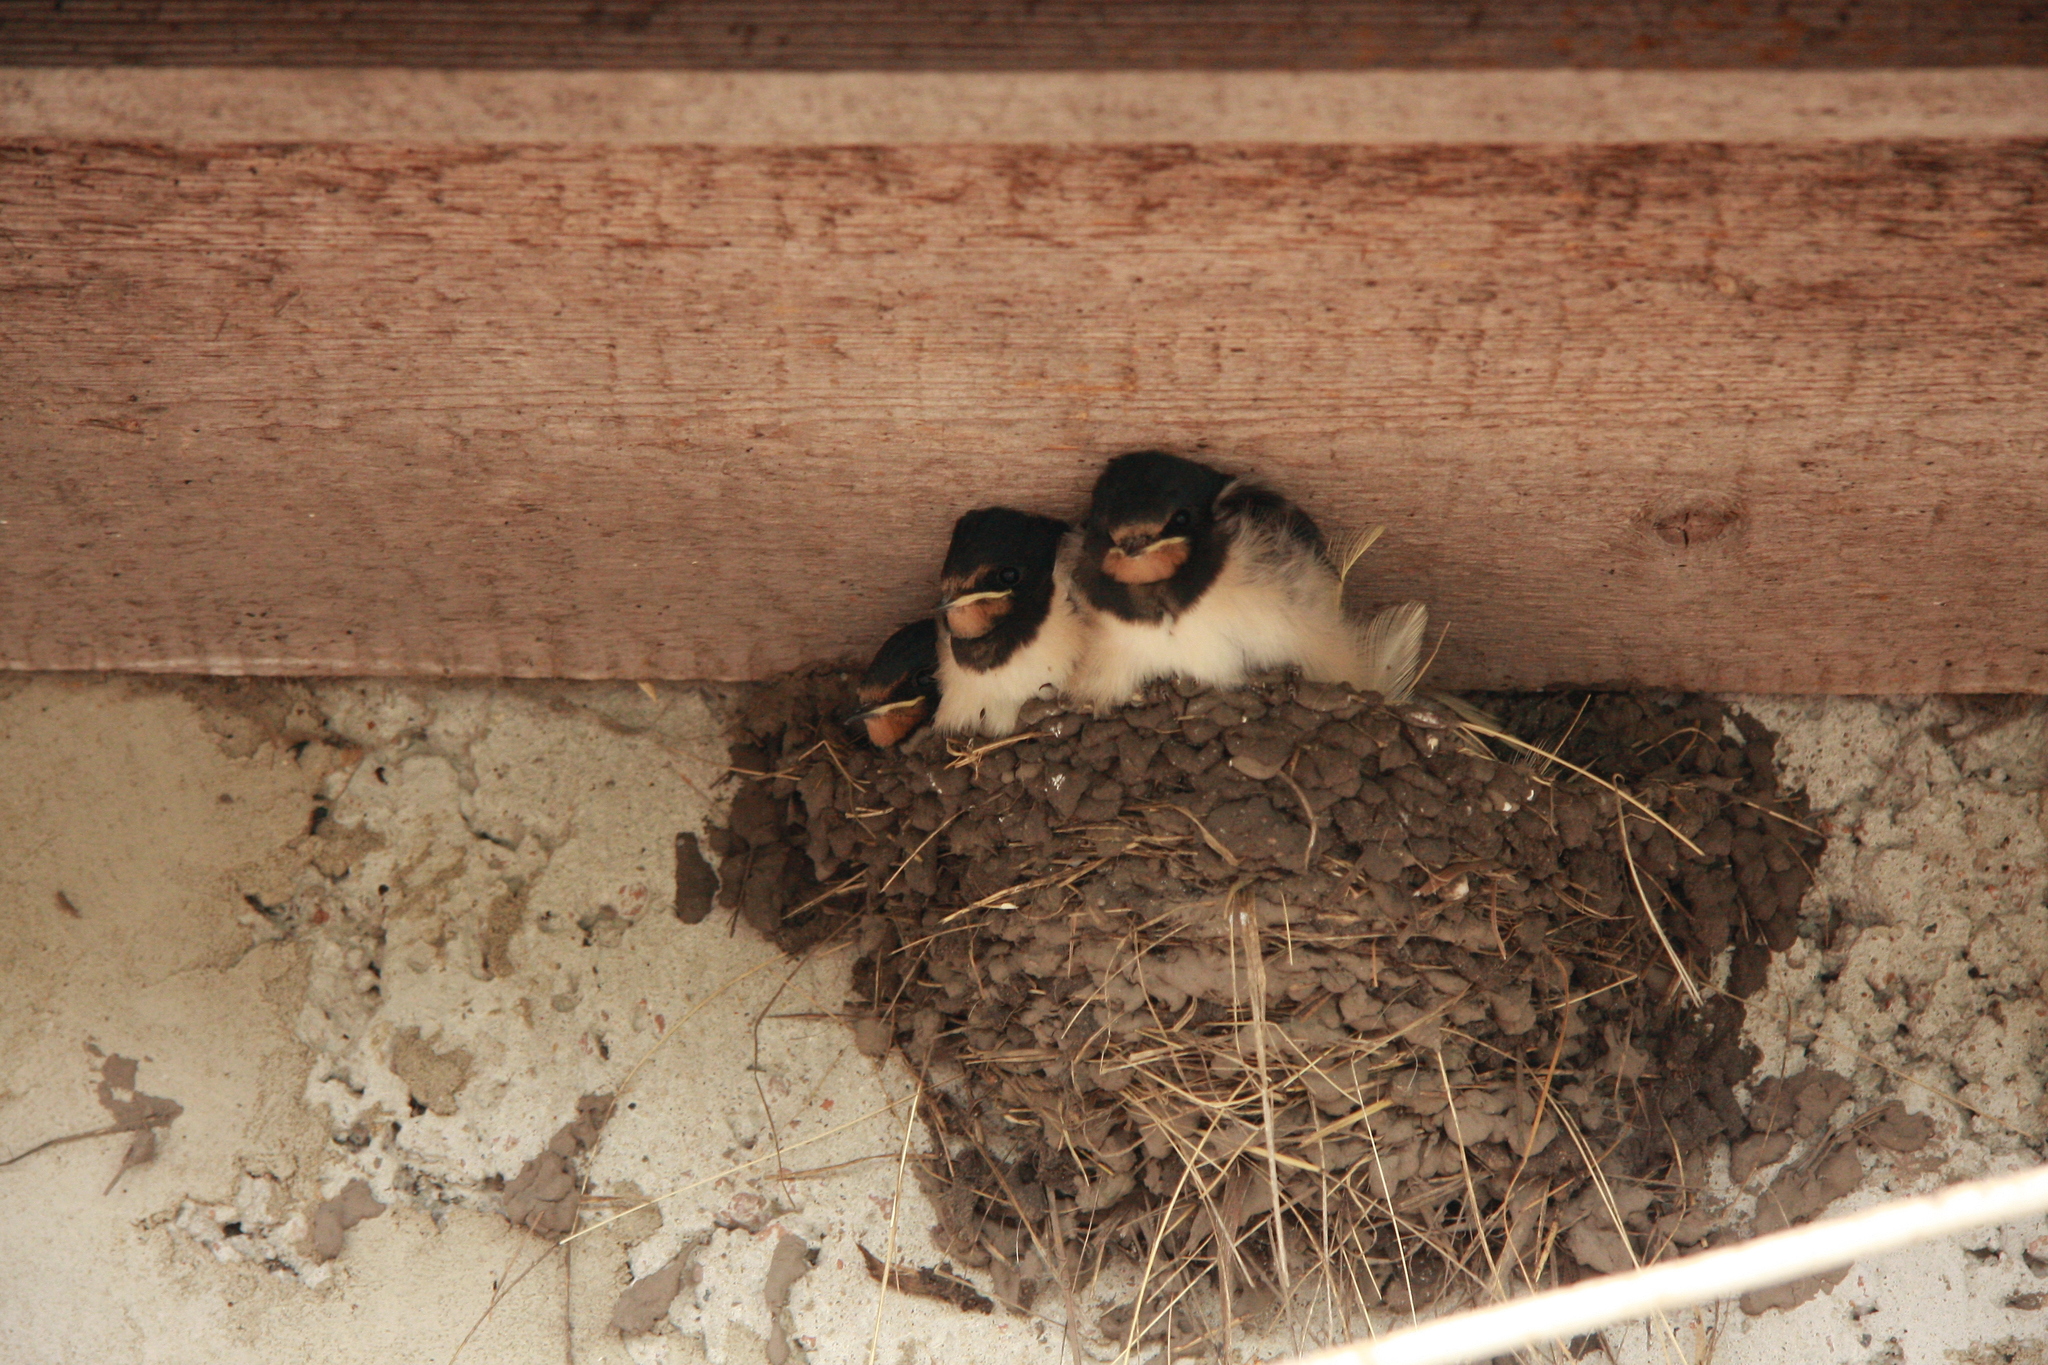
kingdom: Animalia
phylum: Chordata
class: Aves
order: Passeriformes
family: Hirundinidae
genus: Hirundo
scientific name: Hirundo rustica
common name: Barn swallow
